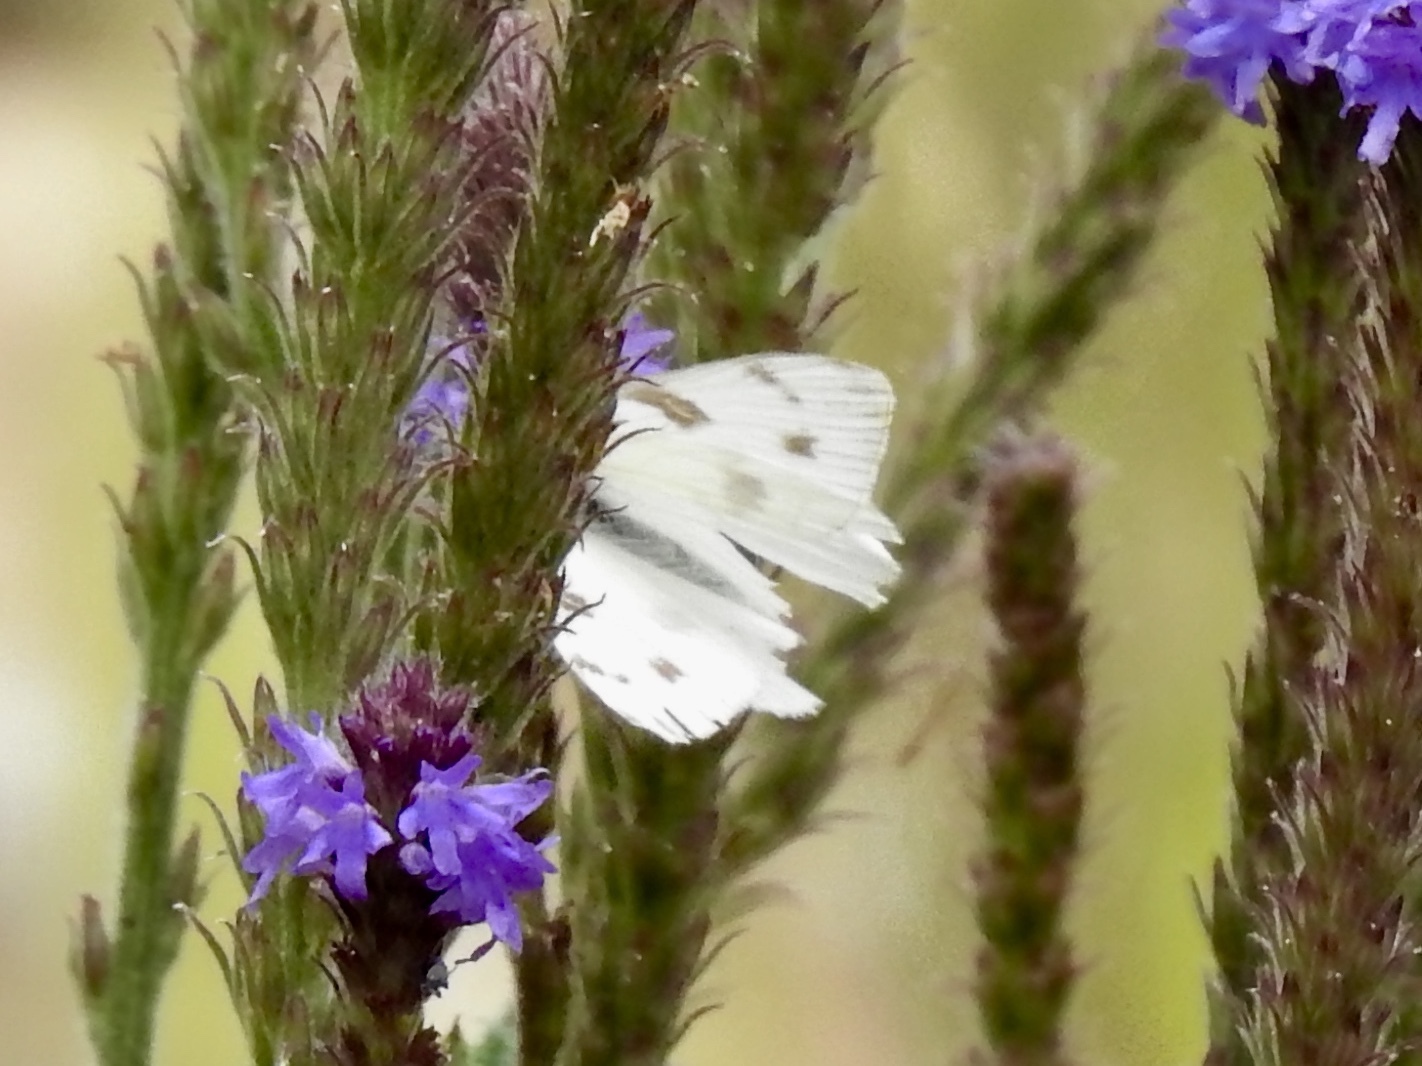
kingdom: Animalia
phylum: Arthropoda
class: Insecta
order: Lepidoptera
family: Pieridae
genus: Pontia
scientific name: Pontia protodice
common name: Checkered white
